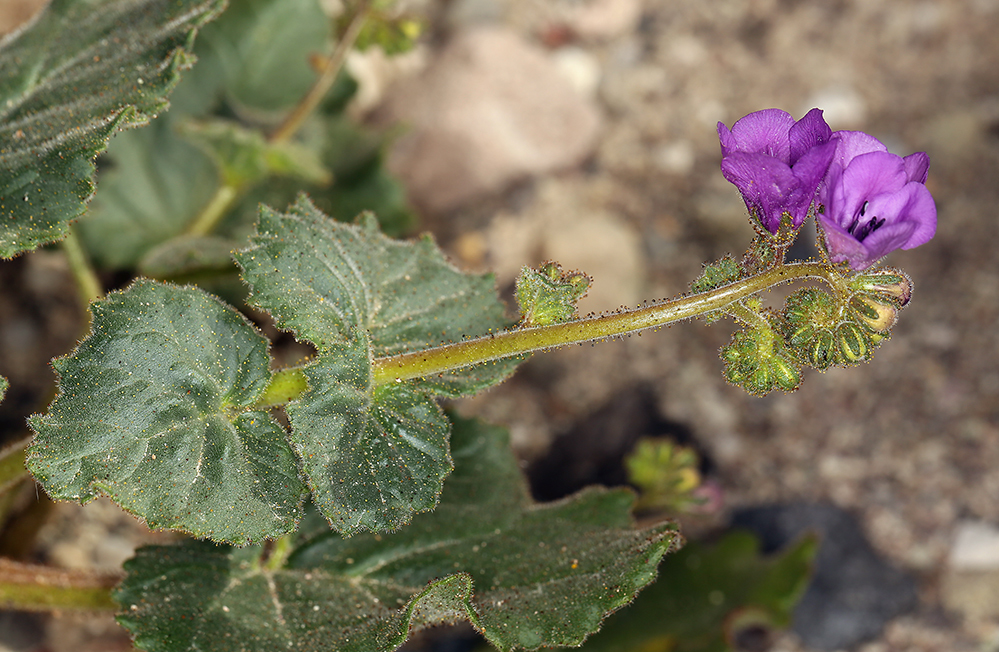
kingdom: Plantae
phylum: Tracheophyta
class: Magnoliopsida
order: Boraginales
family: Hydrophyllaceae
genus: Phacelia
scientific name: Phacelia calthifolia
